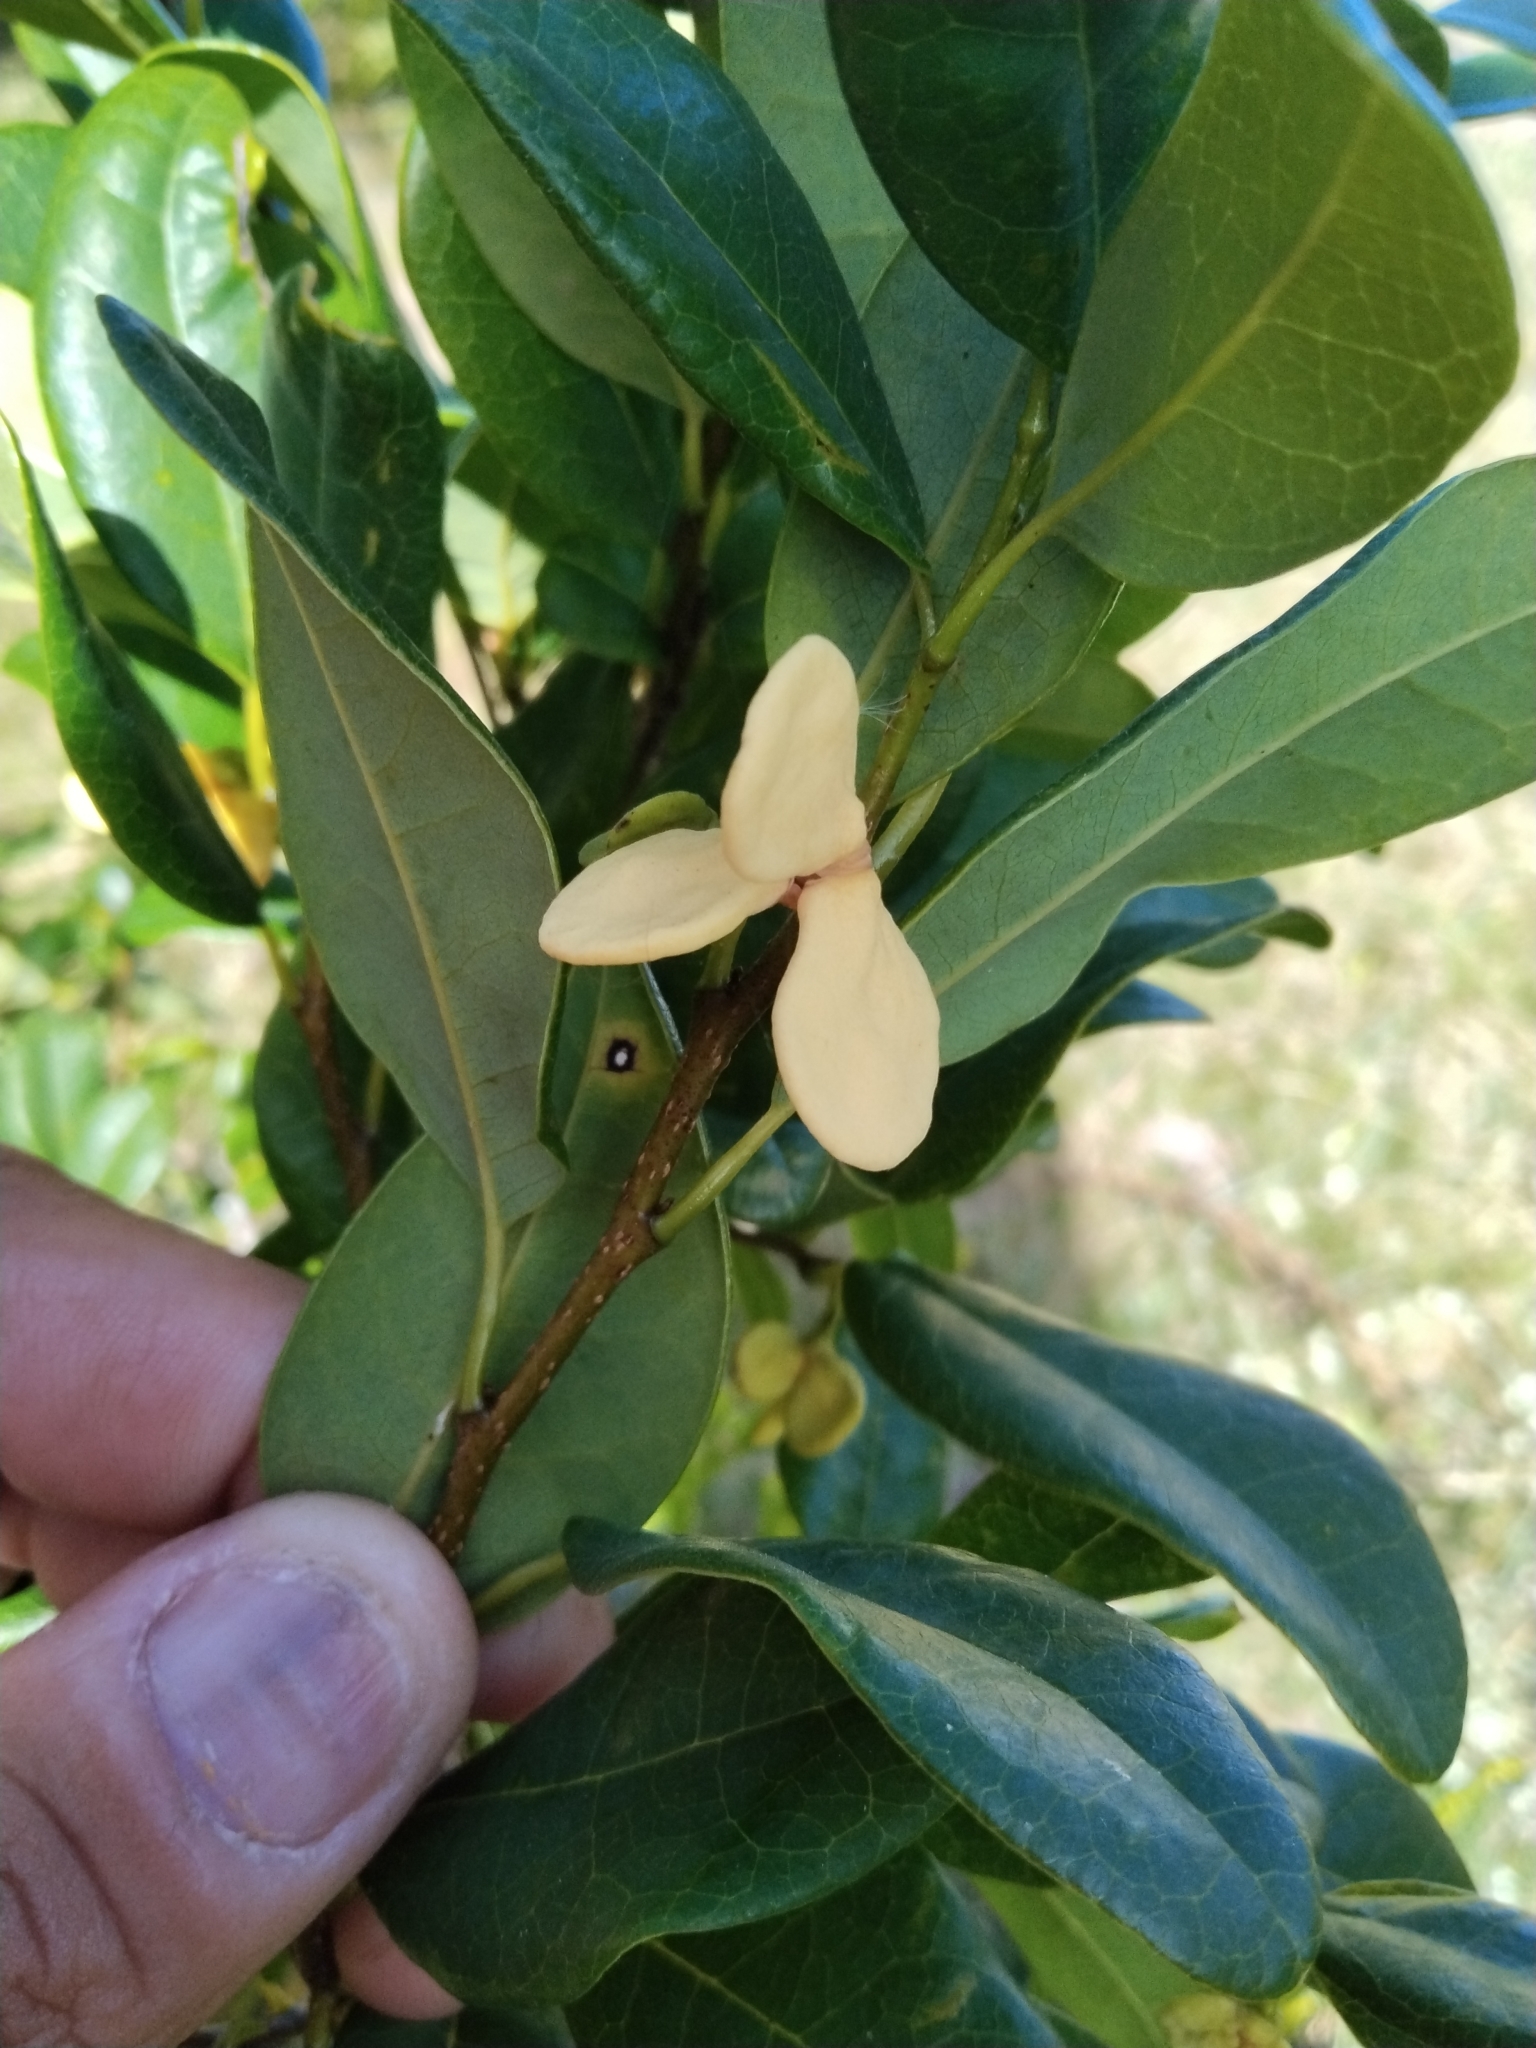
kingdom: Plantae
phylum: Tracheophyta
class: Magnoliopsida
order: Magnoliales
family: Annonaceae
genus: Annona
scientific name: Annona maritima
